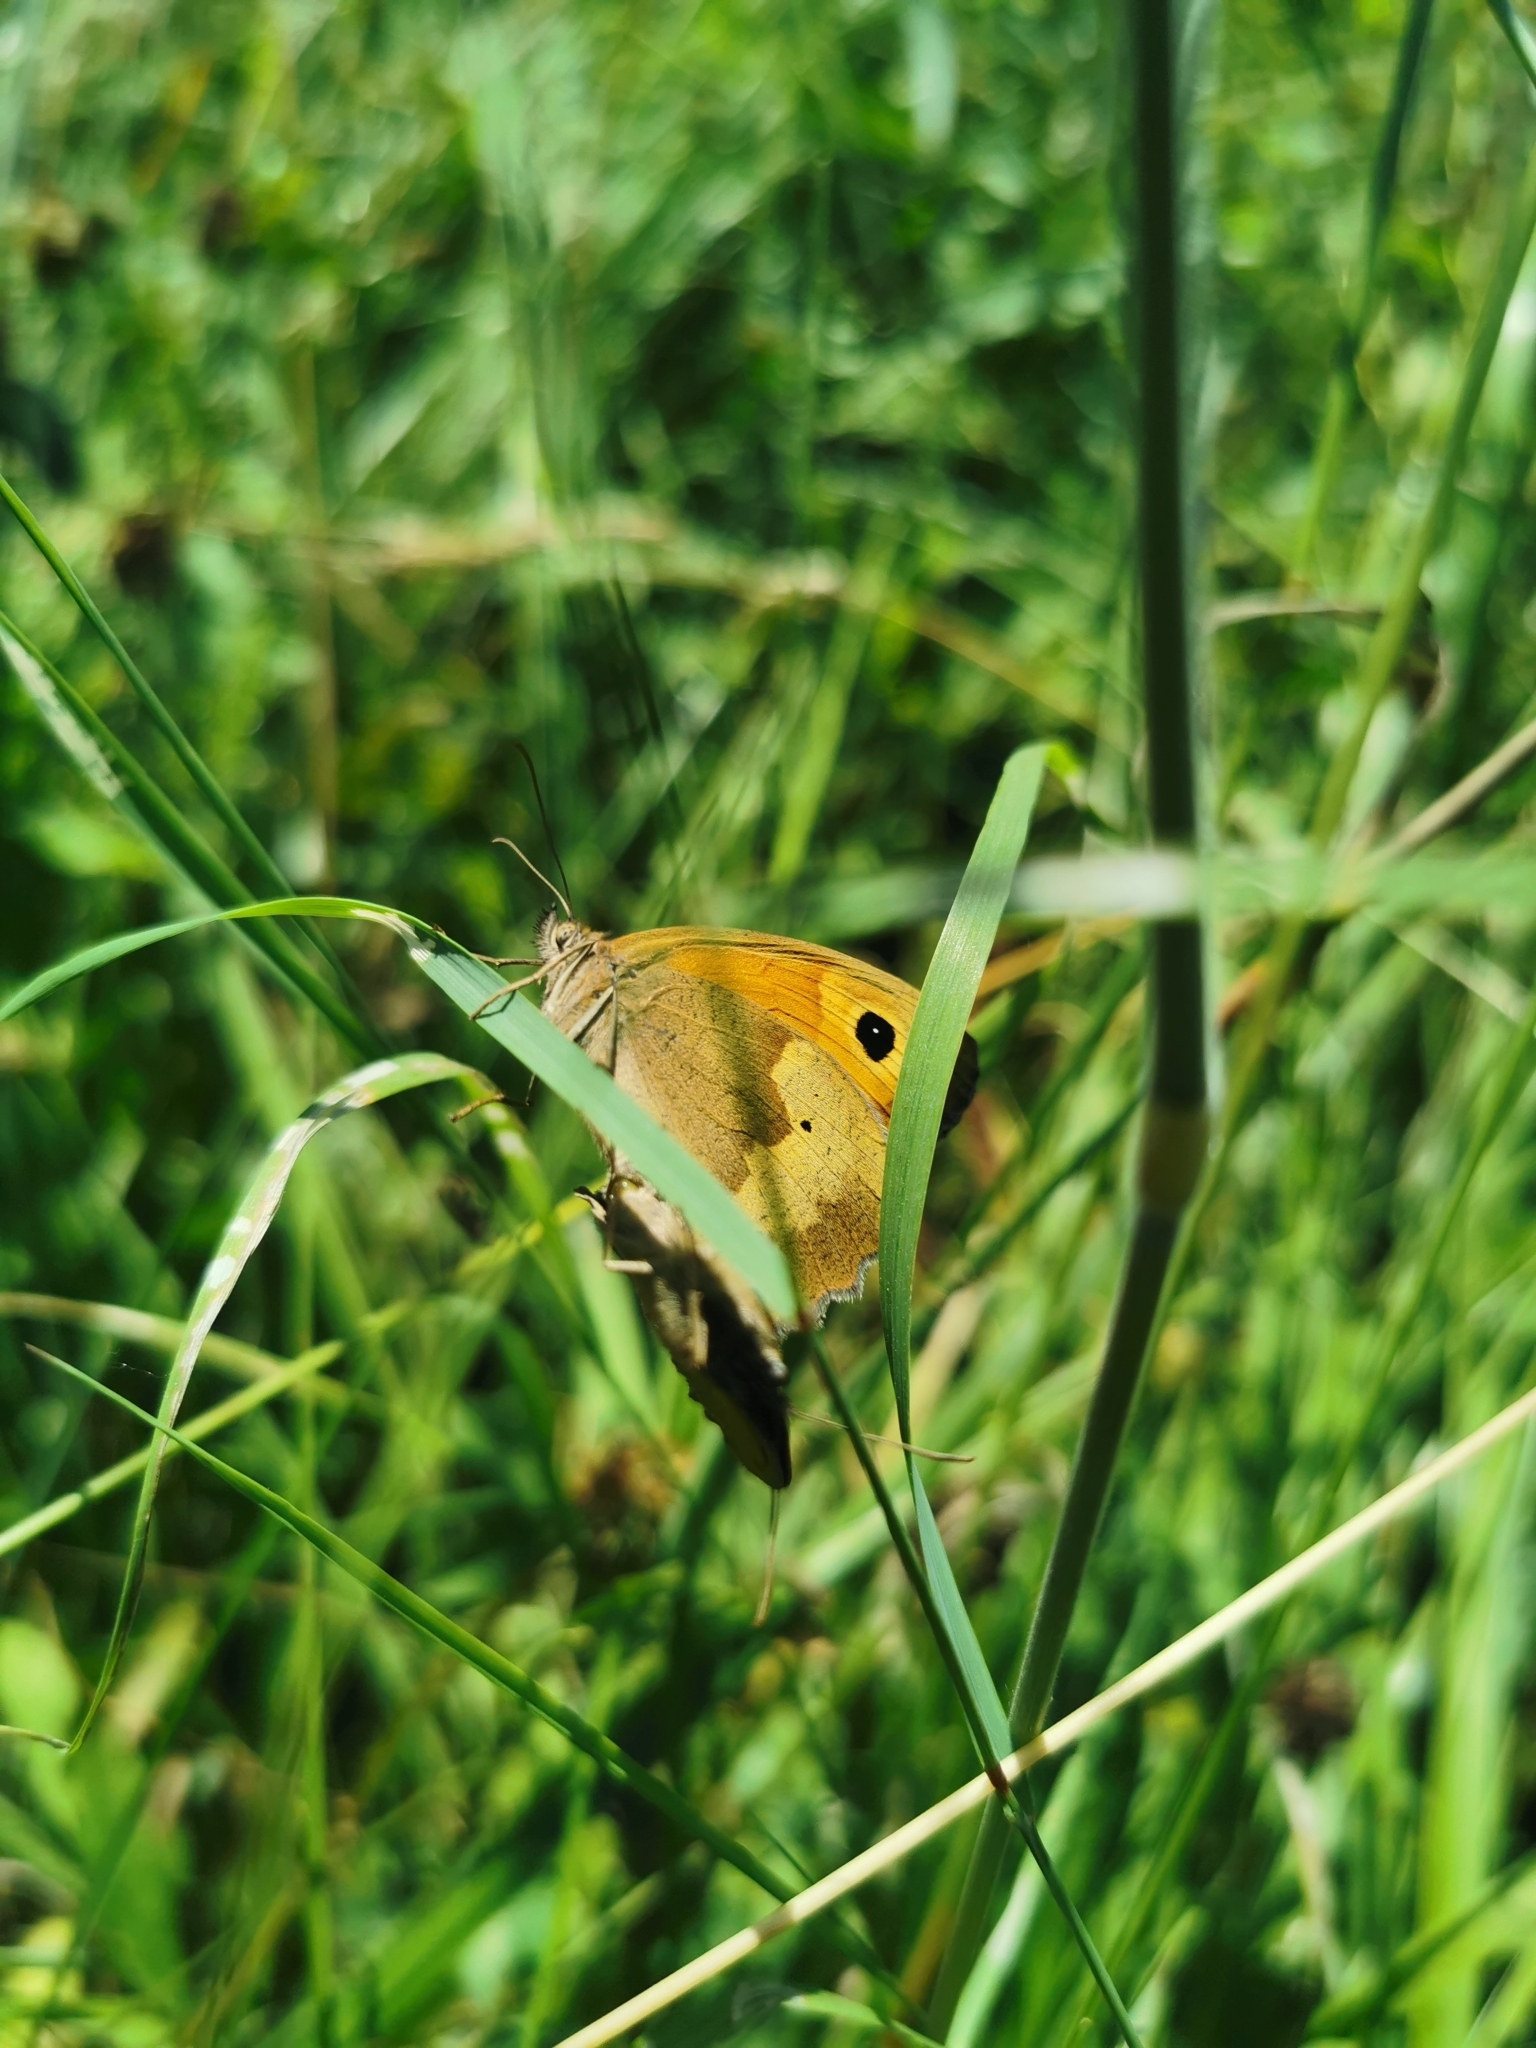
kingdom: Animalia
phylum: Arthropoda
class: Insecta
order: Lepidoptera
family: Nymphalidae
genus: Maniola
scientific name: Maniola jurtina
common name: Meadow brown
